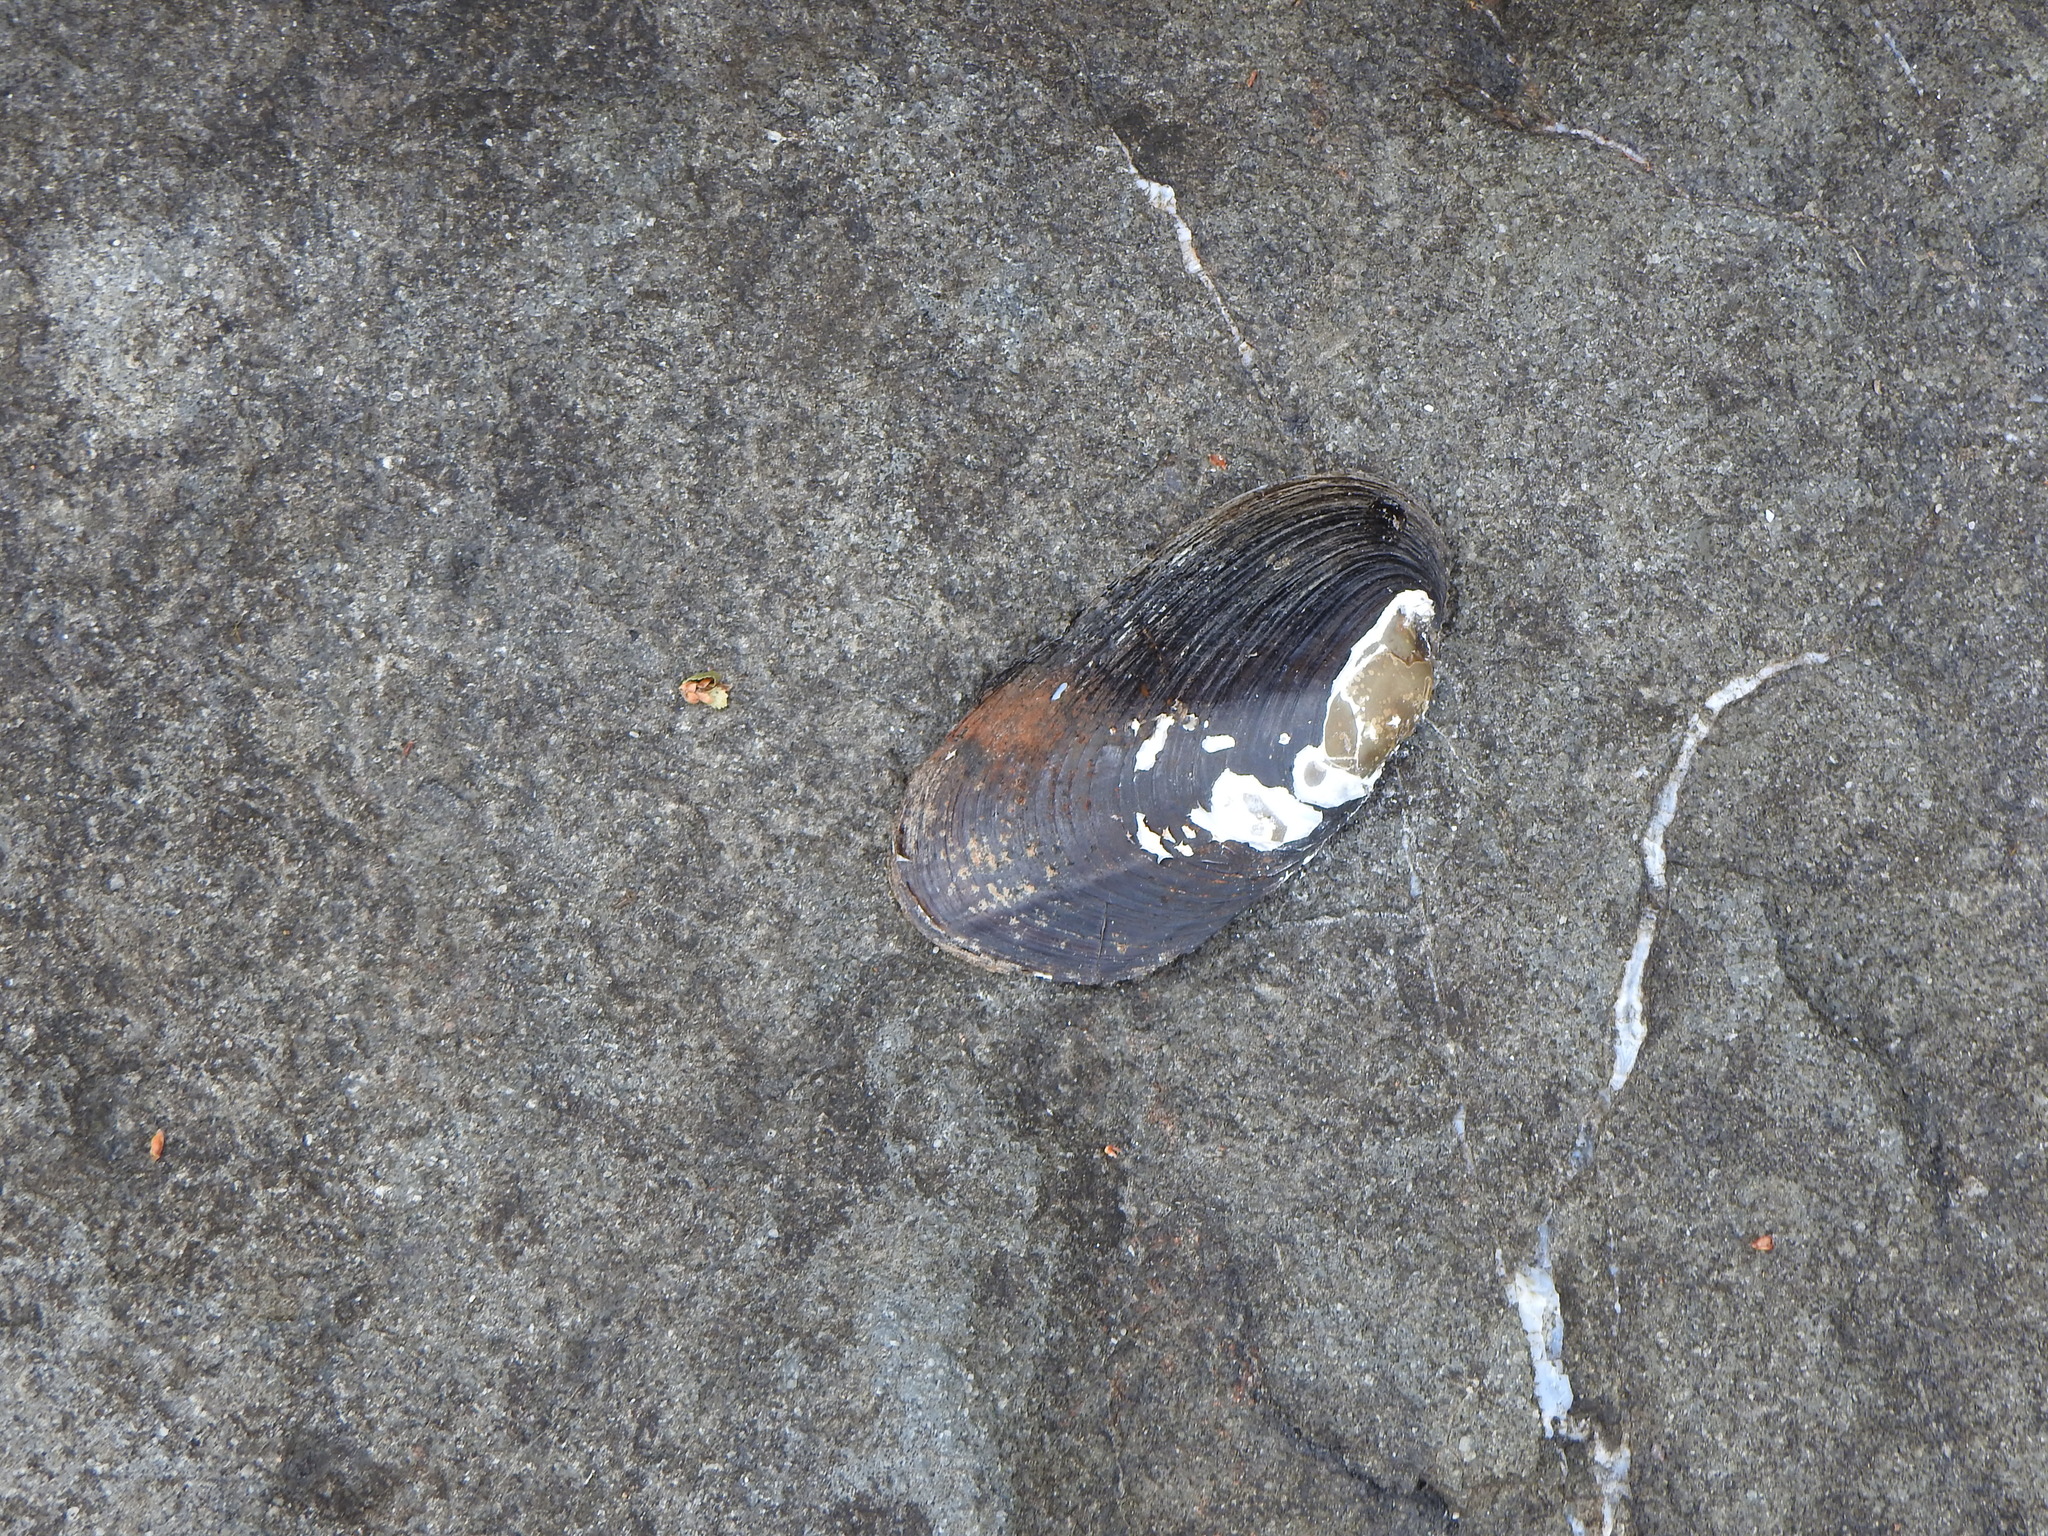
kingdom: Animalia
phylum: Mollusca
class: Bivalvia
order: Unionida
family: Hyriidae
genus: Diplodon
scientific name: Diplodon chilensis
